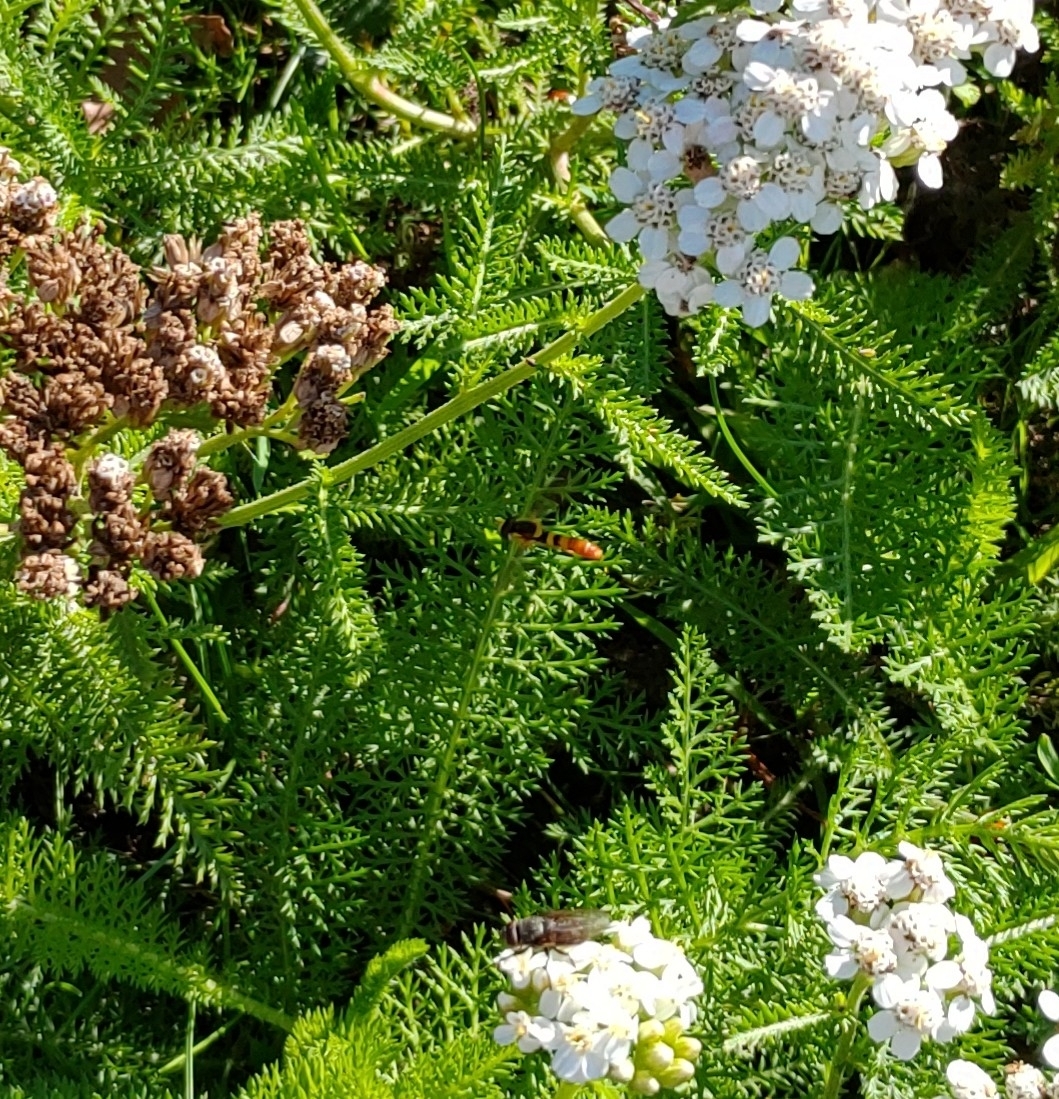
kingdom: Plantae
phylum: Tracheophyta
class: Magnoliopsida
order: Asterales
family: Asteraceae
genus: Achillea
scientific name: Achillea millefolium
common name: Yarrow
